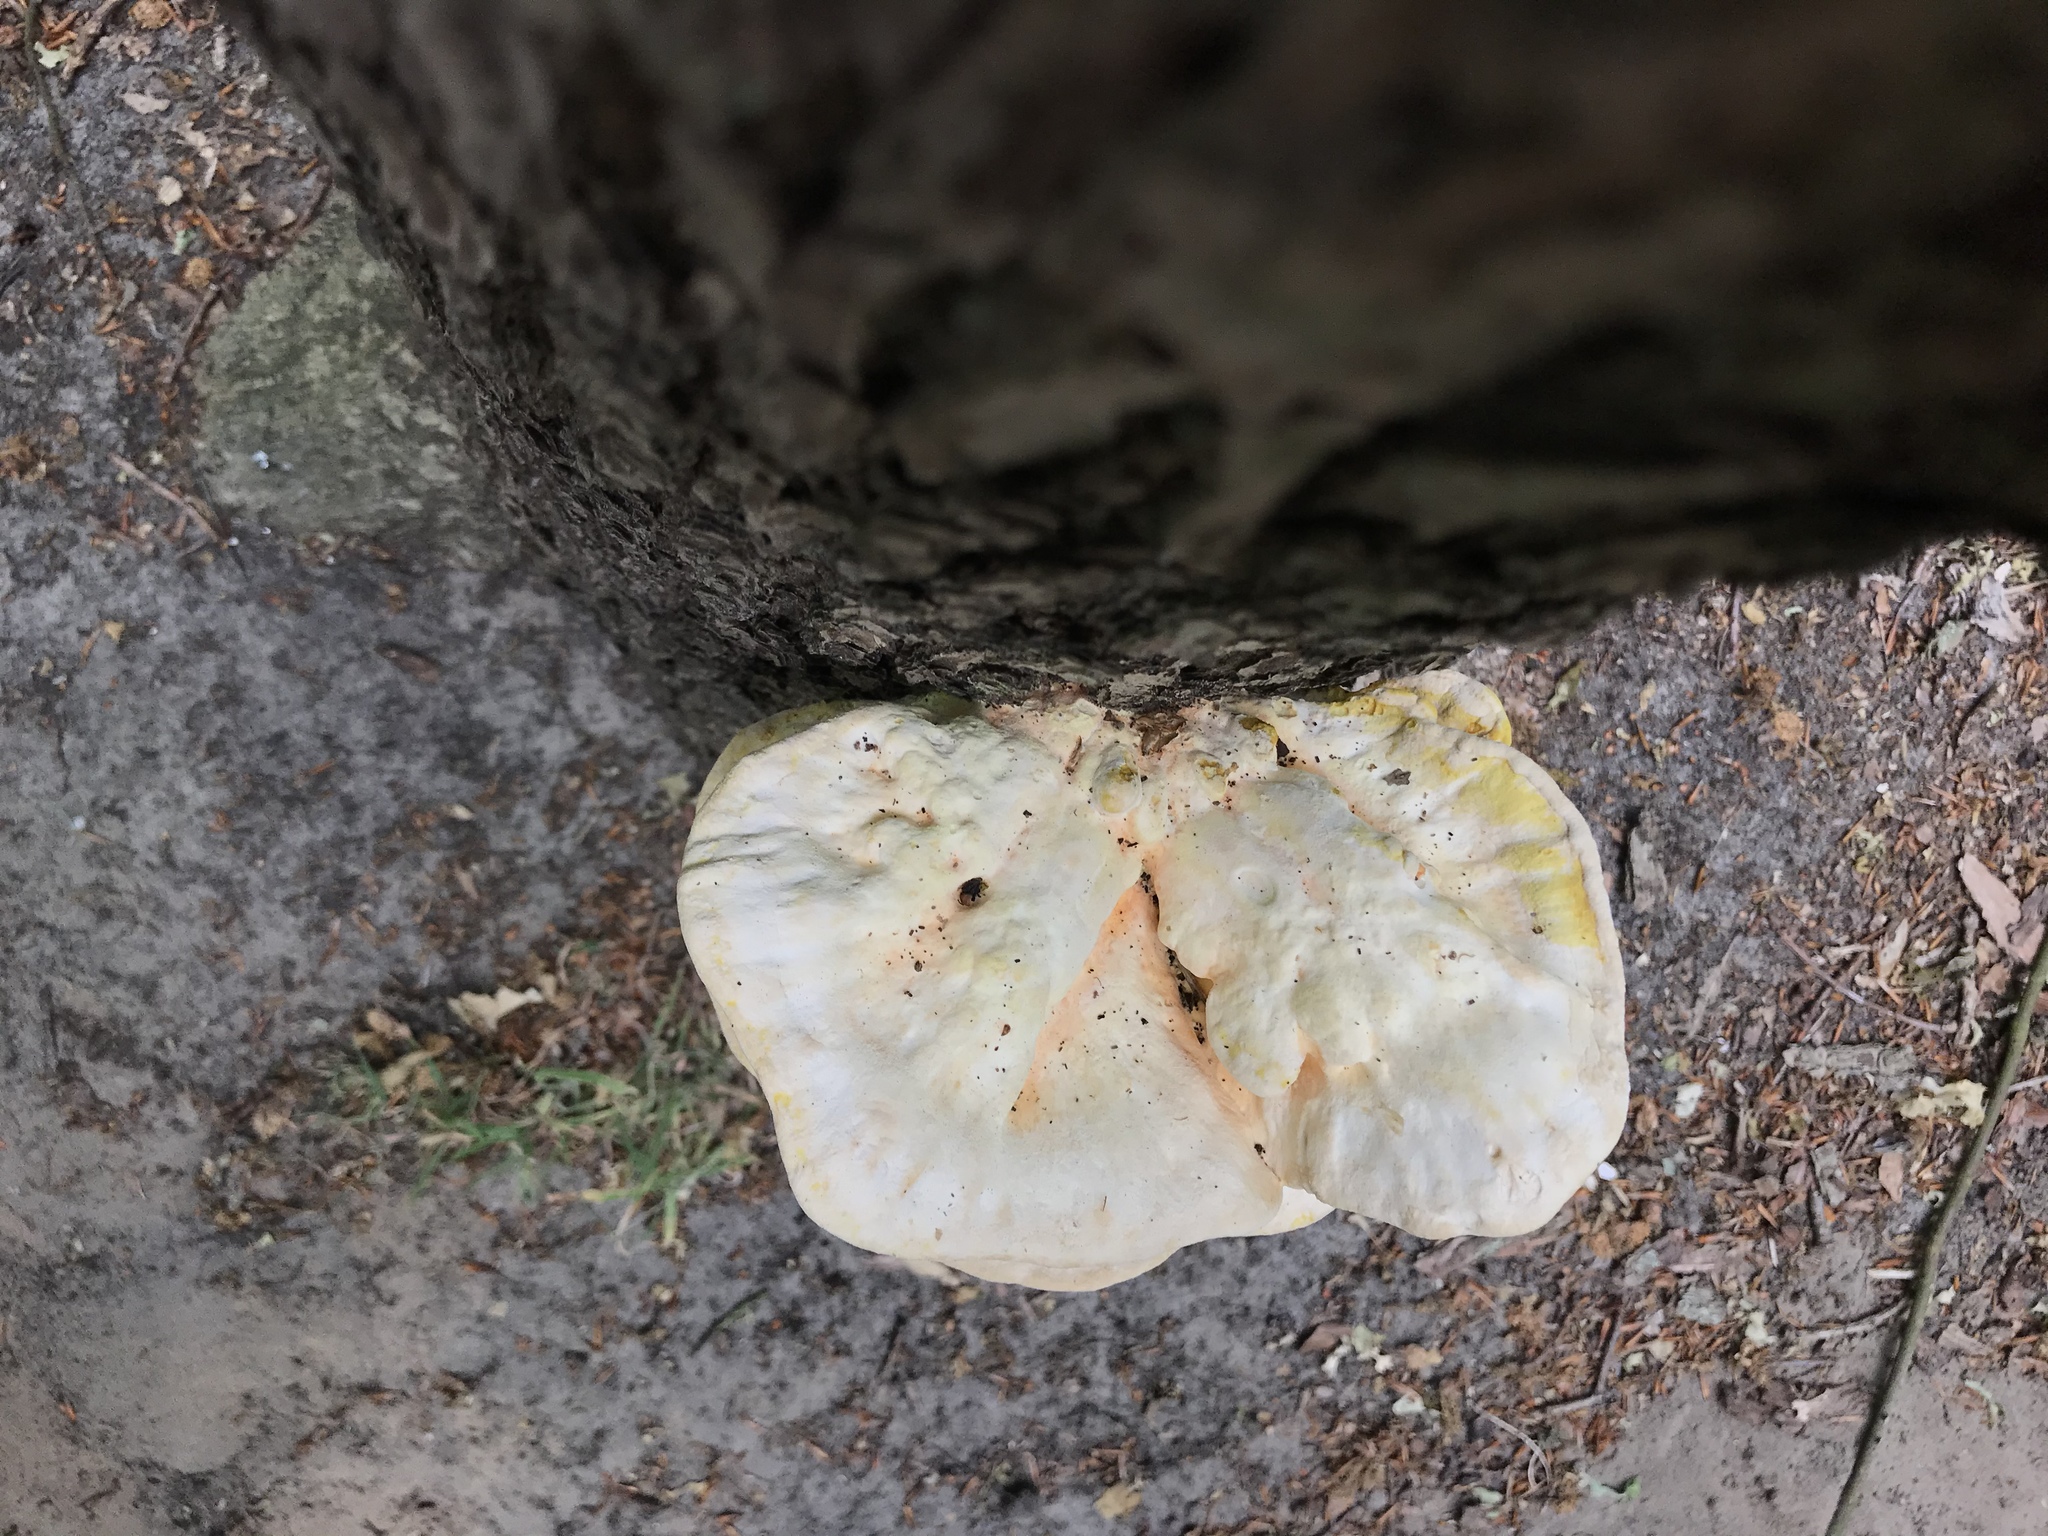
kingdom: Fungi
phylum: Basidiomycota
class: Agaricomycetes
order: Polyporales
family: Laetiporaceae
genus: Laetiporus
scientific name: Laetiporus sulphureus
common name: Chicken of the woods
